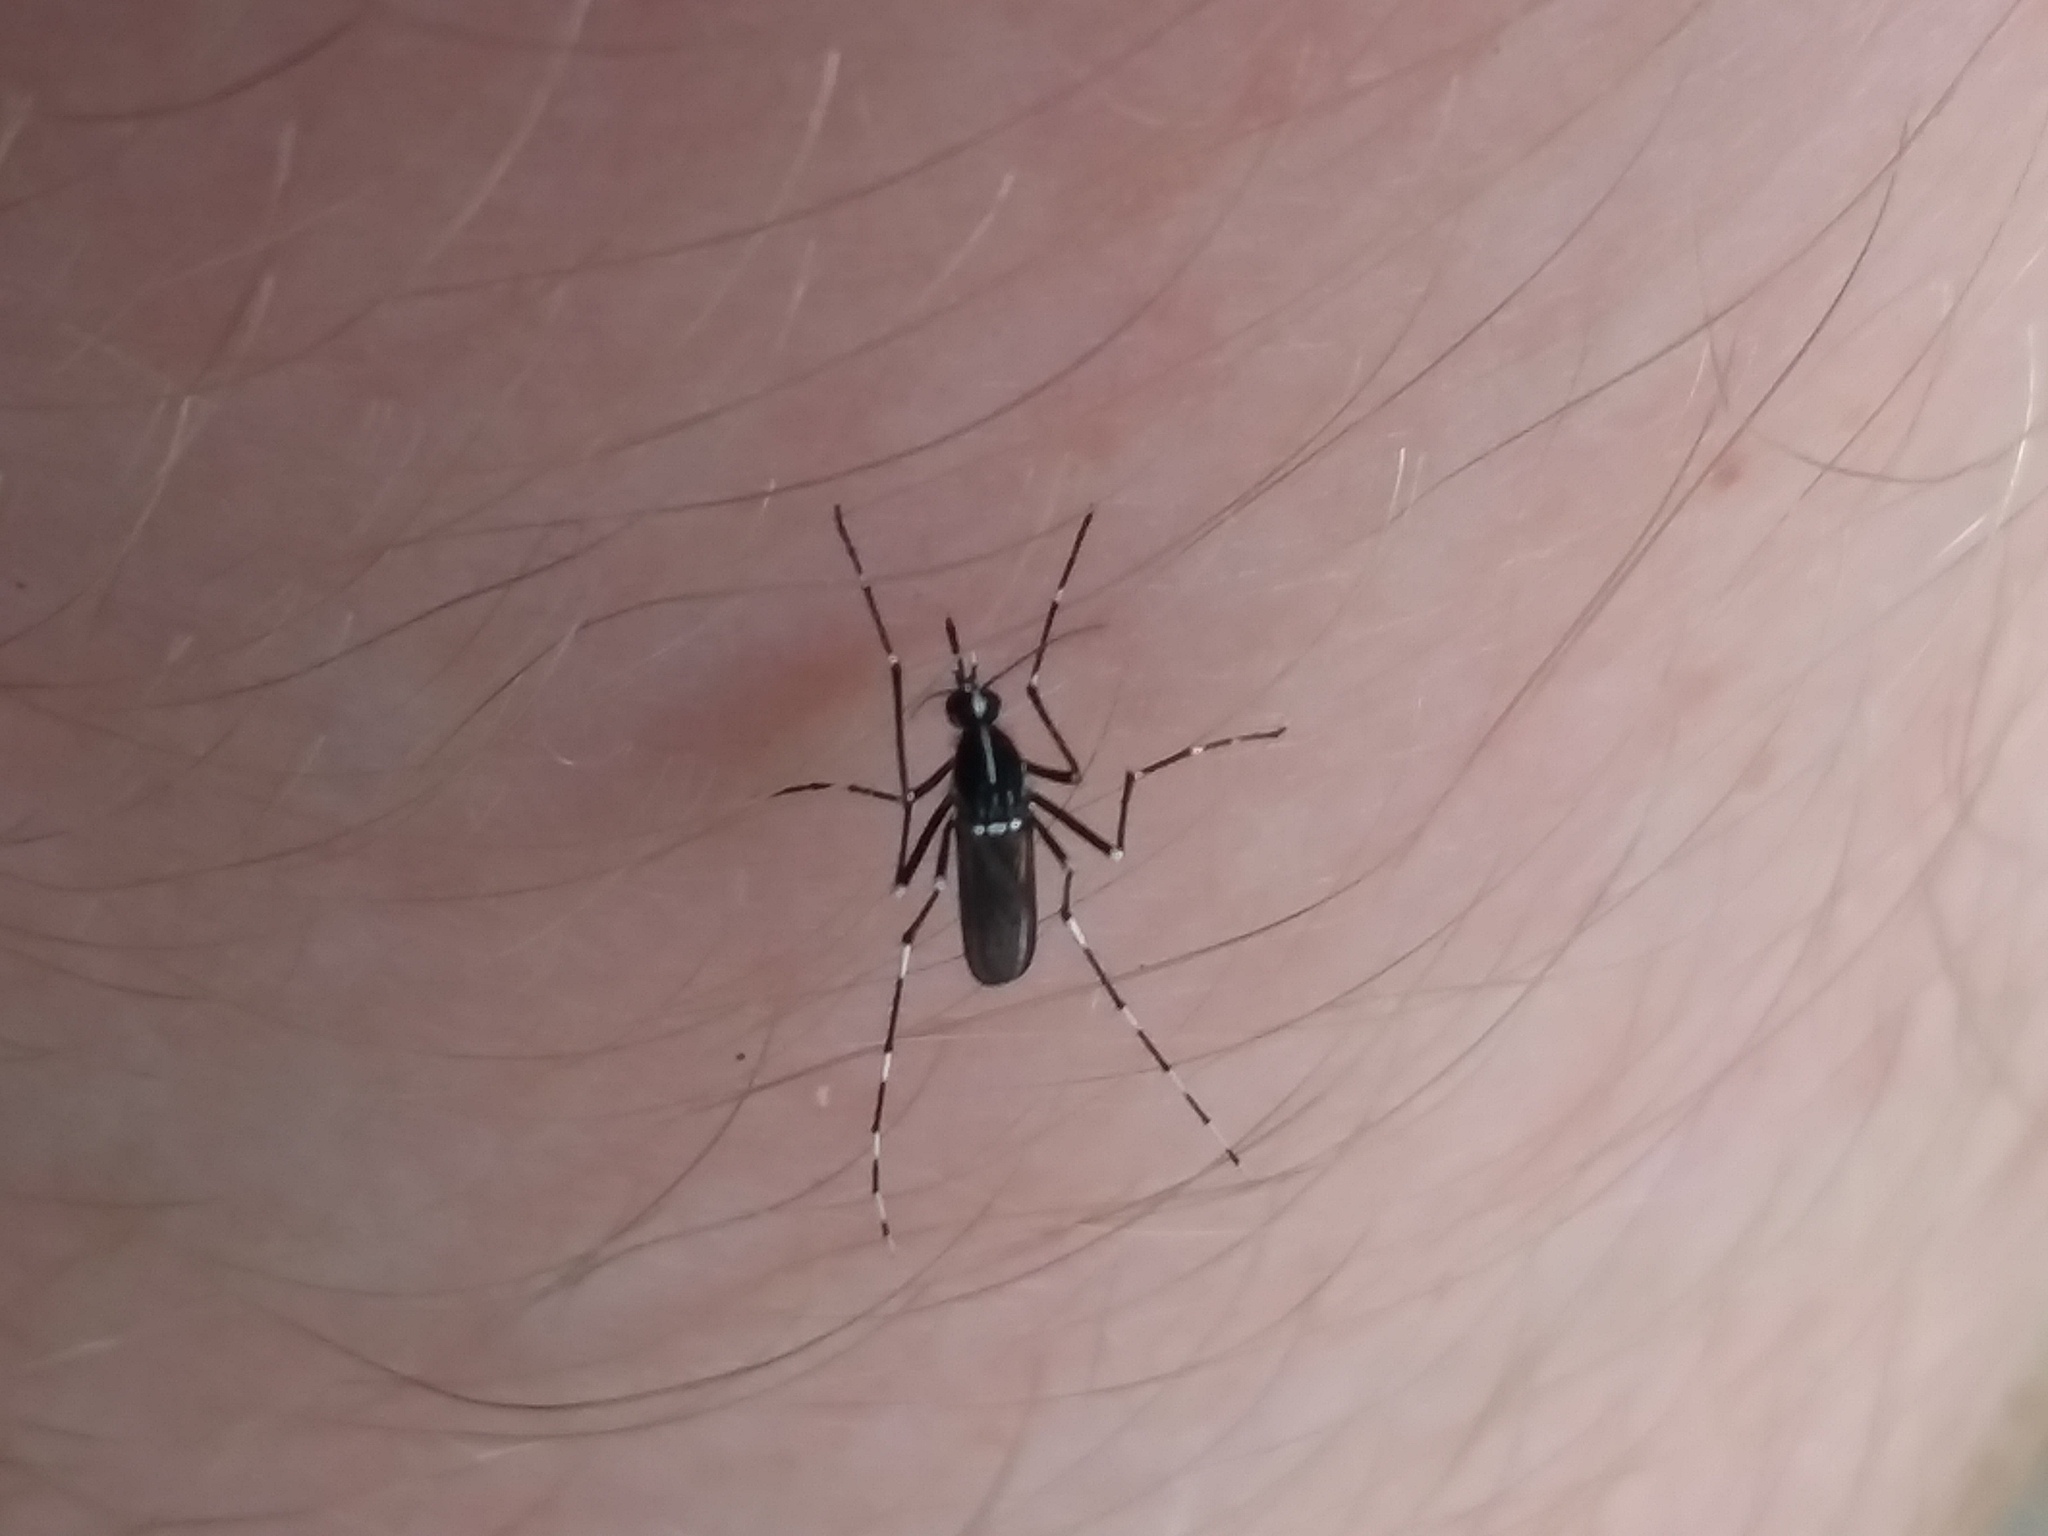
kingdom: Animalia
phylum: Arthropoda
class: Insecta
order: Diptera
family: Culicidae
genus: Aedes
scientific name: Aedes albopictus
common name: Tiger mosquito
